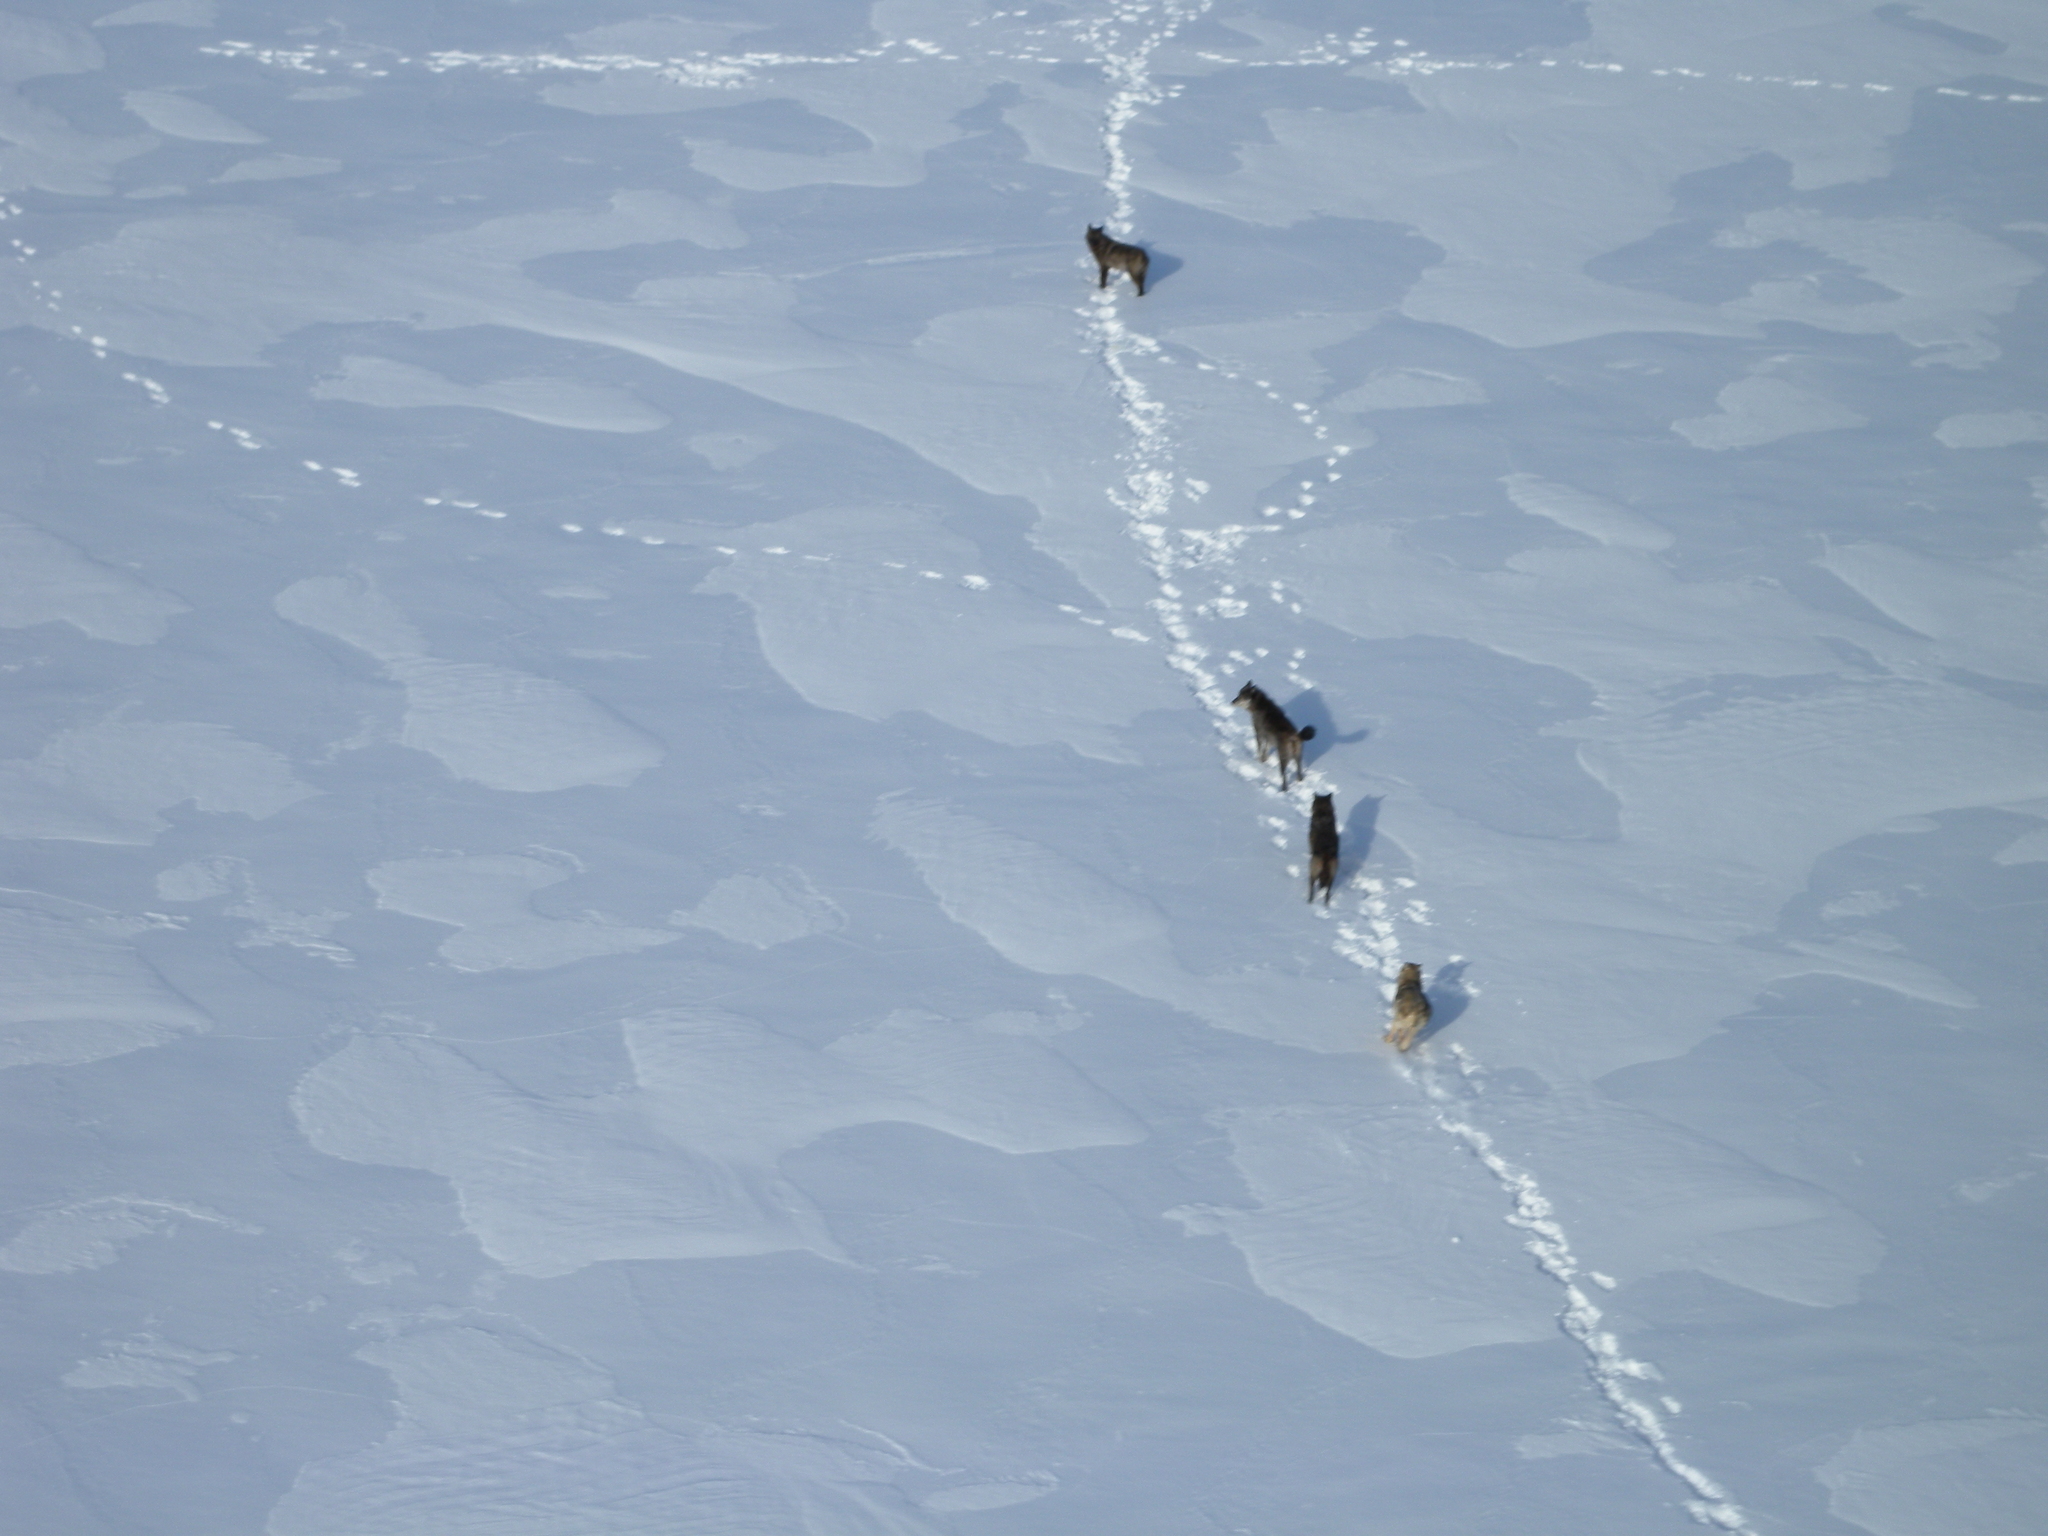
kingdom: Animalia
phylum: Chordata
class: Mammalia
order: Carnivora
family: Canidae
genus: Canis
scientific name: Canis lupus
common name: Gray wolf
